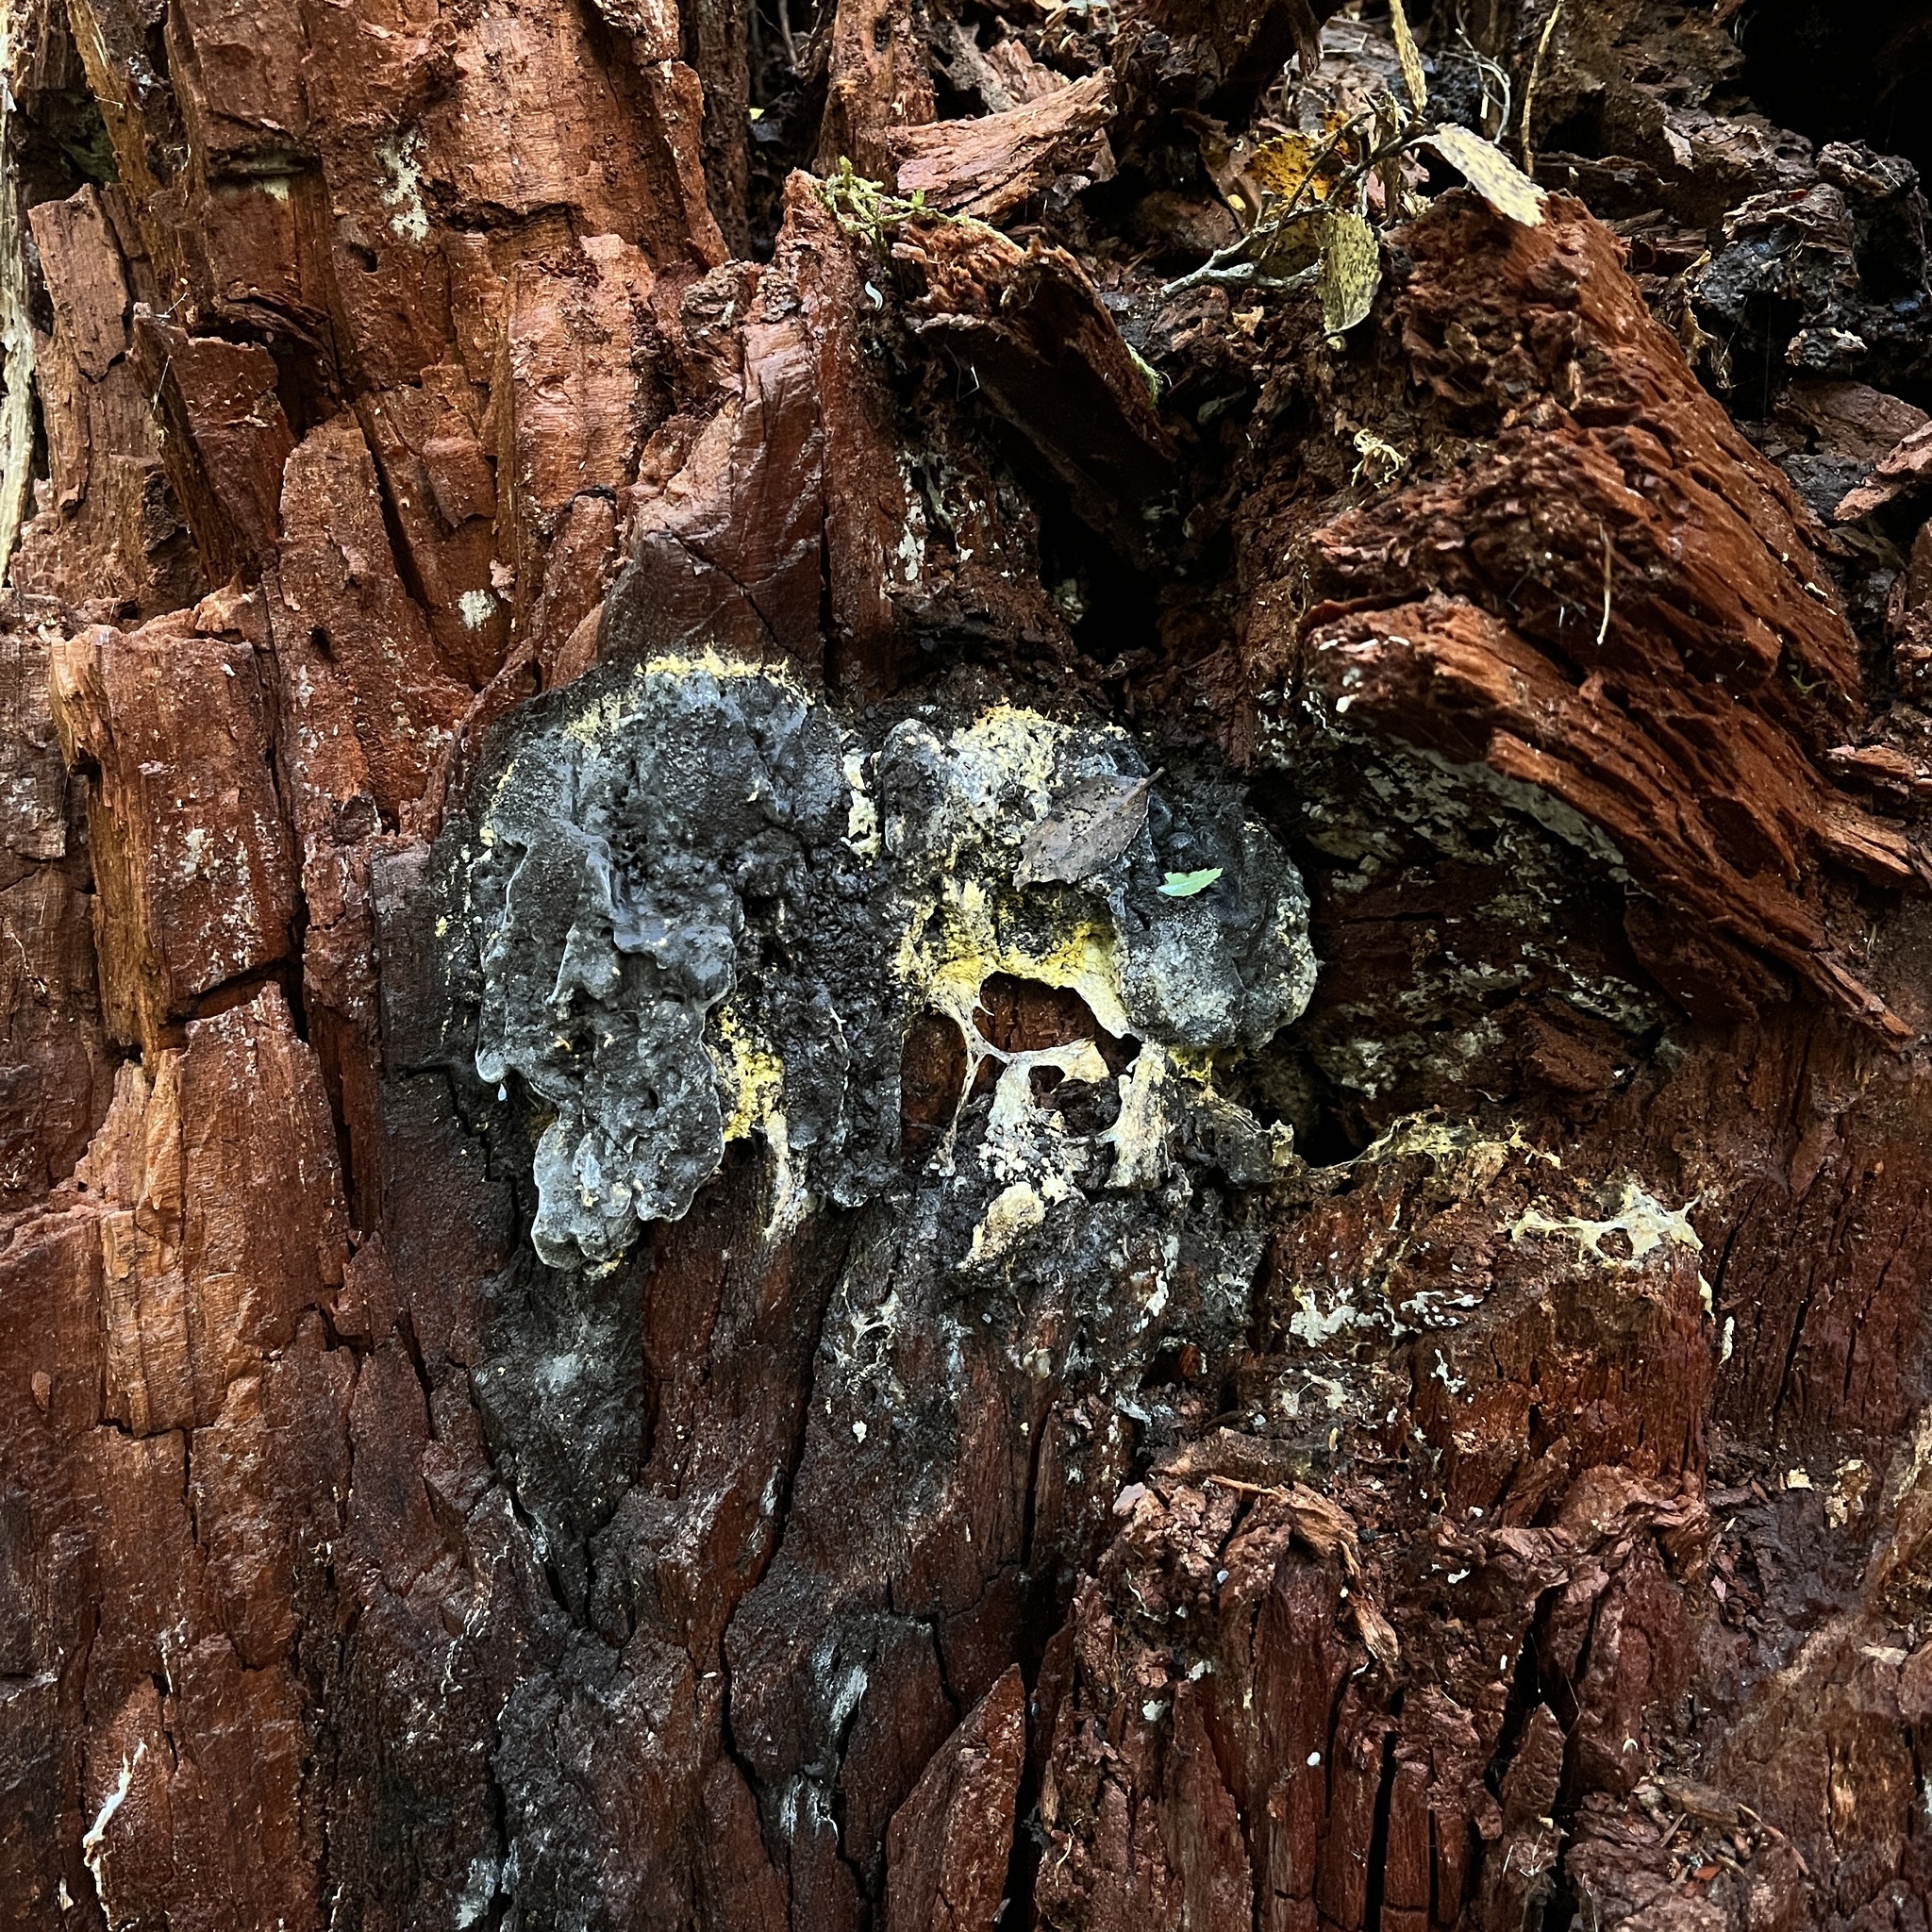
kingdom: Protozoa
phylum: Mycetozoa
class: Myxomycetes
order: Physarales
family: Physaraceae
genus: Fuligo
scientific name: Fuligo septica
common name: Dog vomit slime mold
